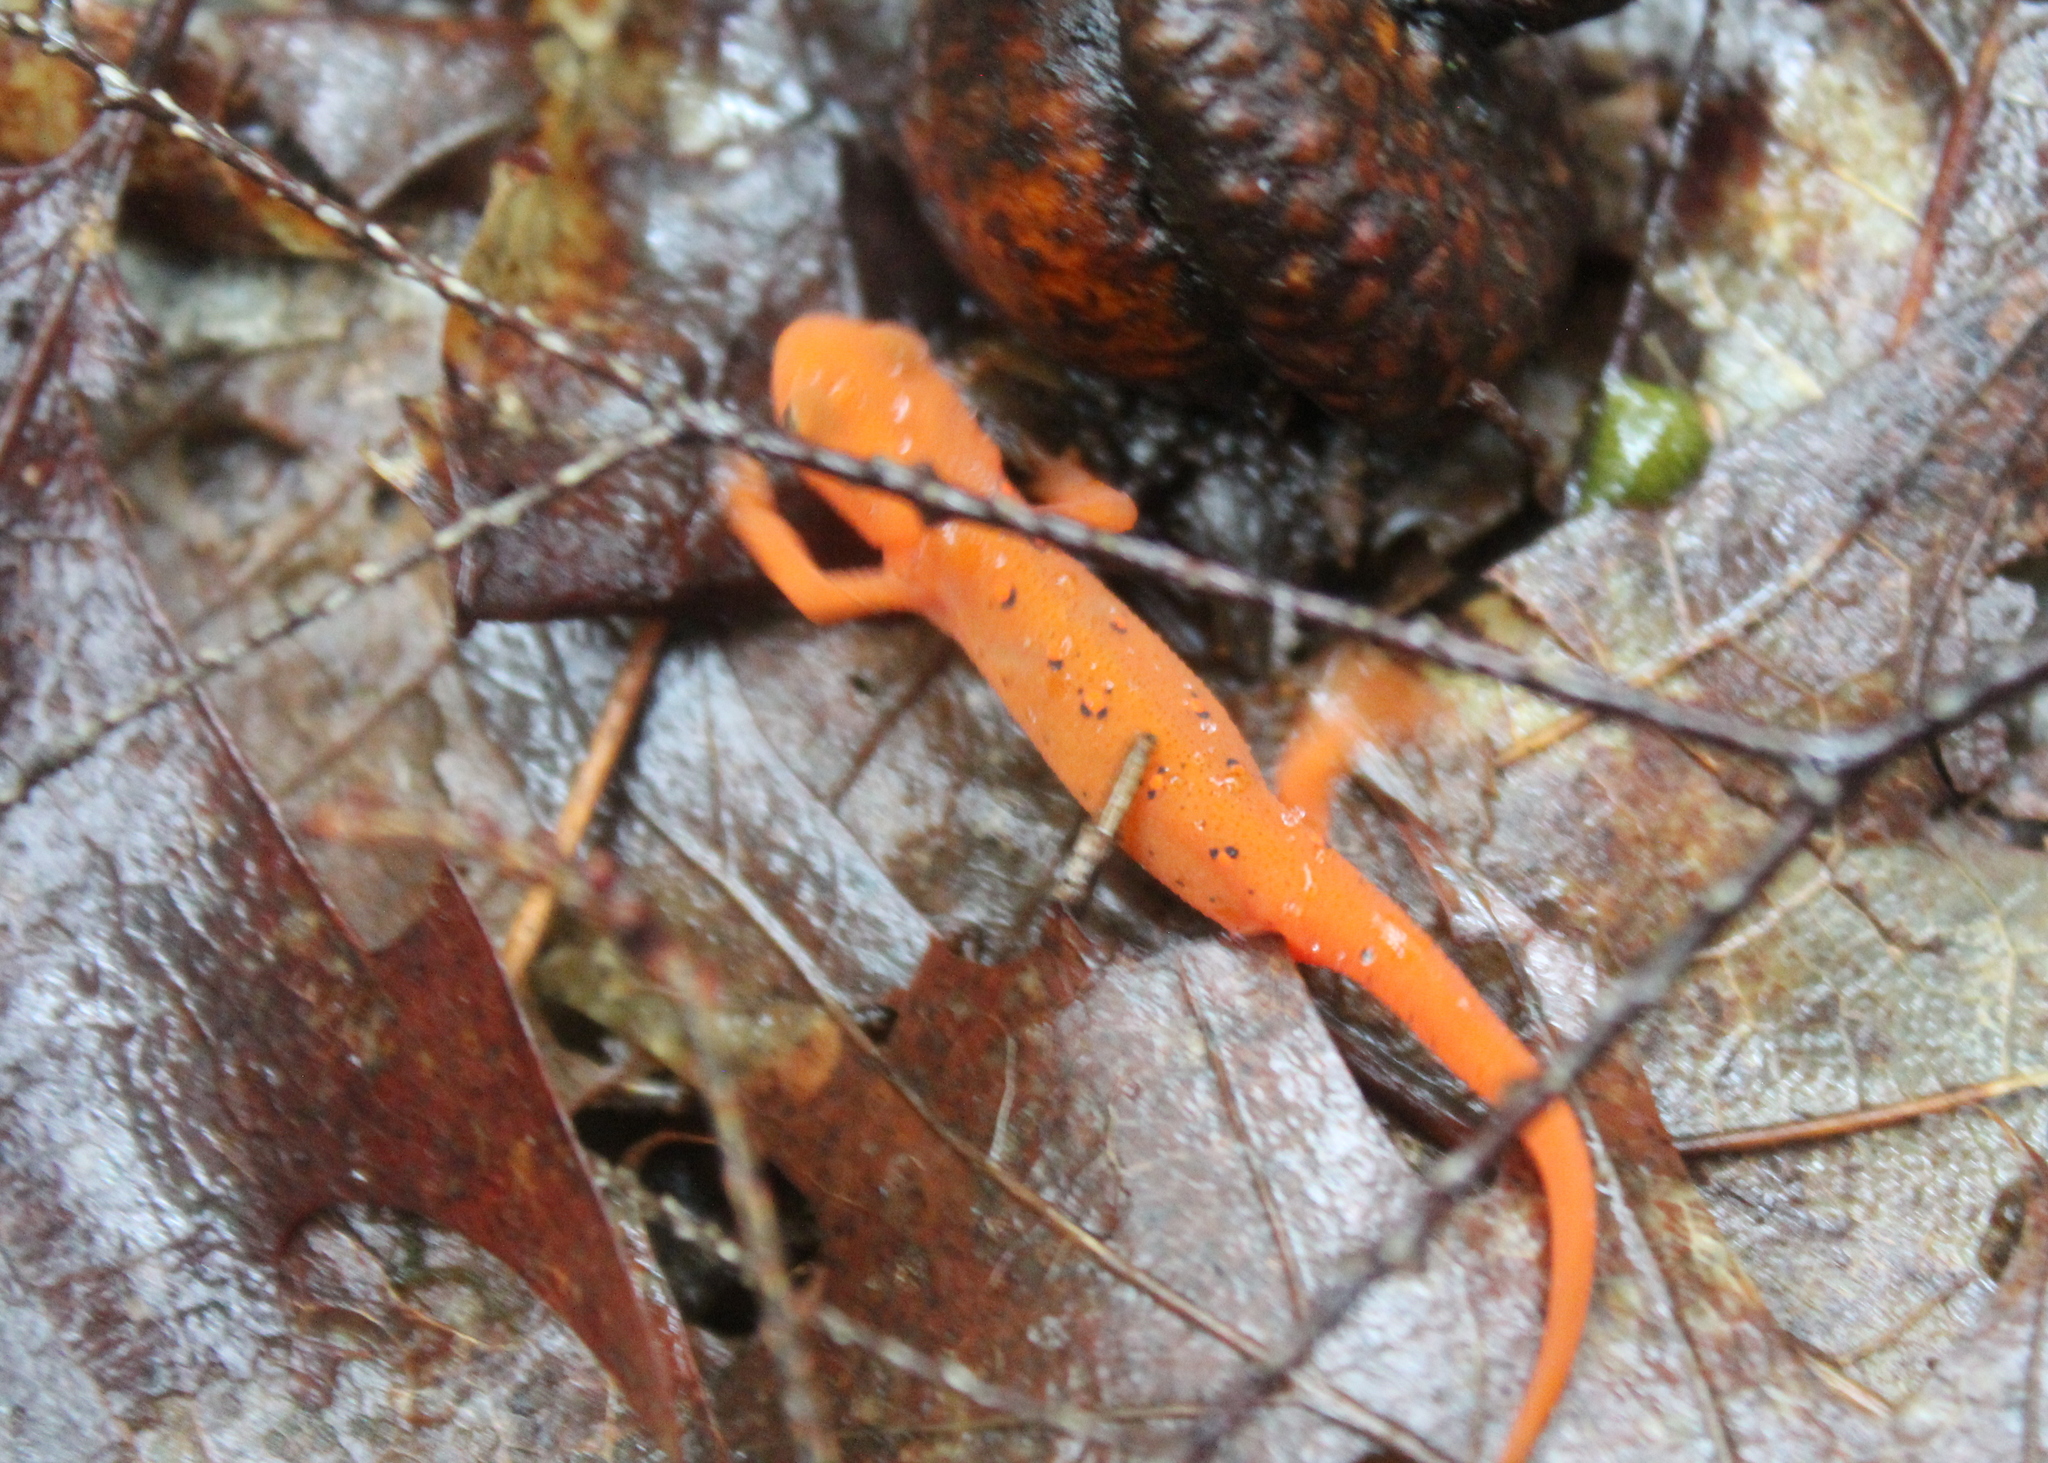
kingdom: Animalia
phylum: Chordata
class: Amphibia
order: Caudata
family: Salamandridae
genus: Notophthalmus
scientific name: Notophthalmus viridescens
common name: Eastern newt
